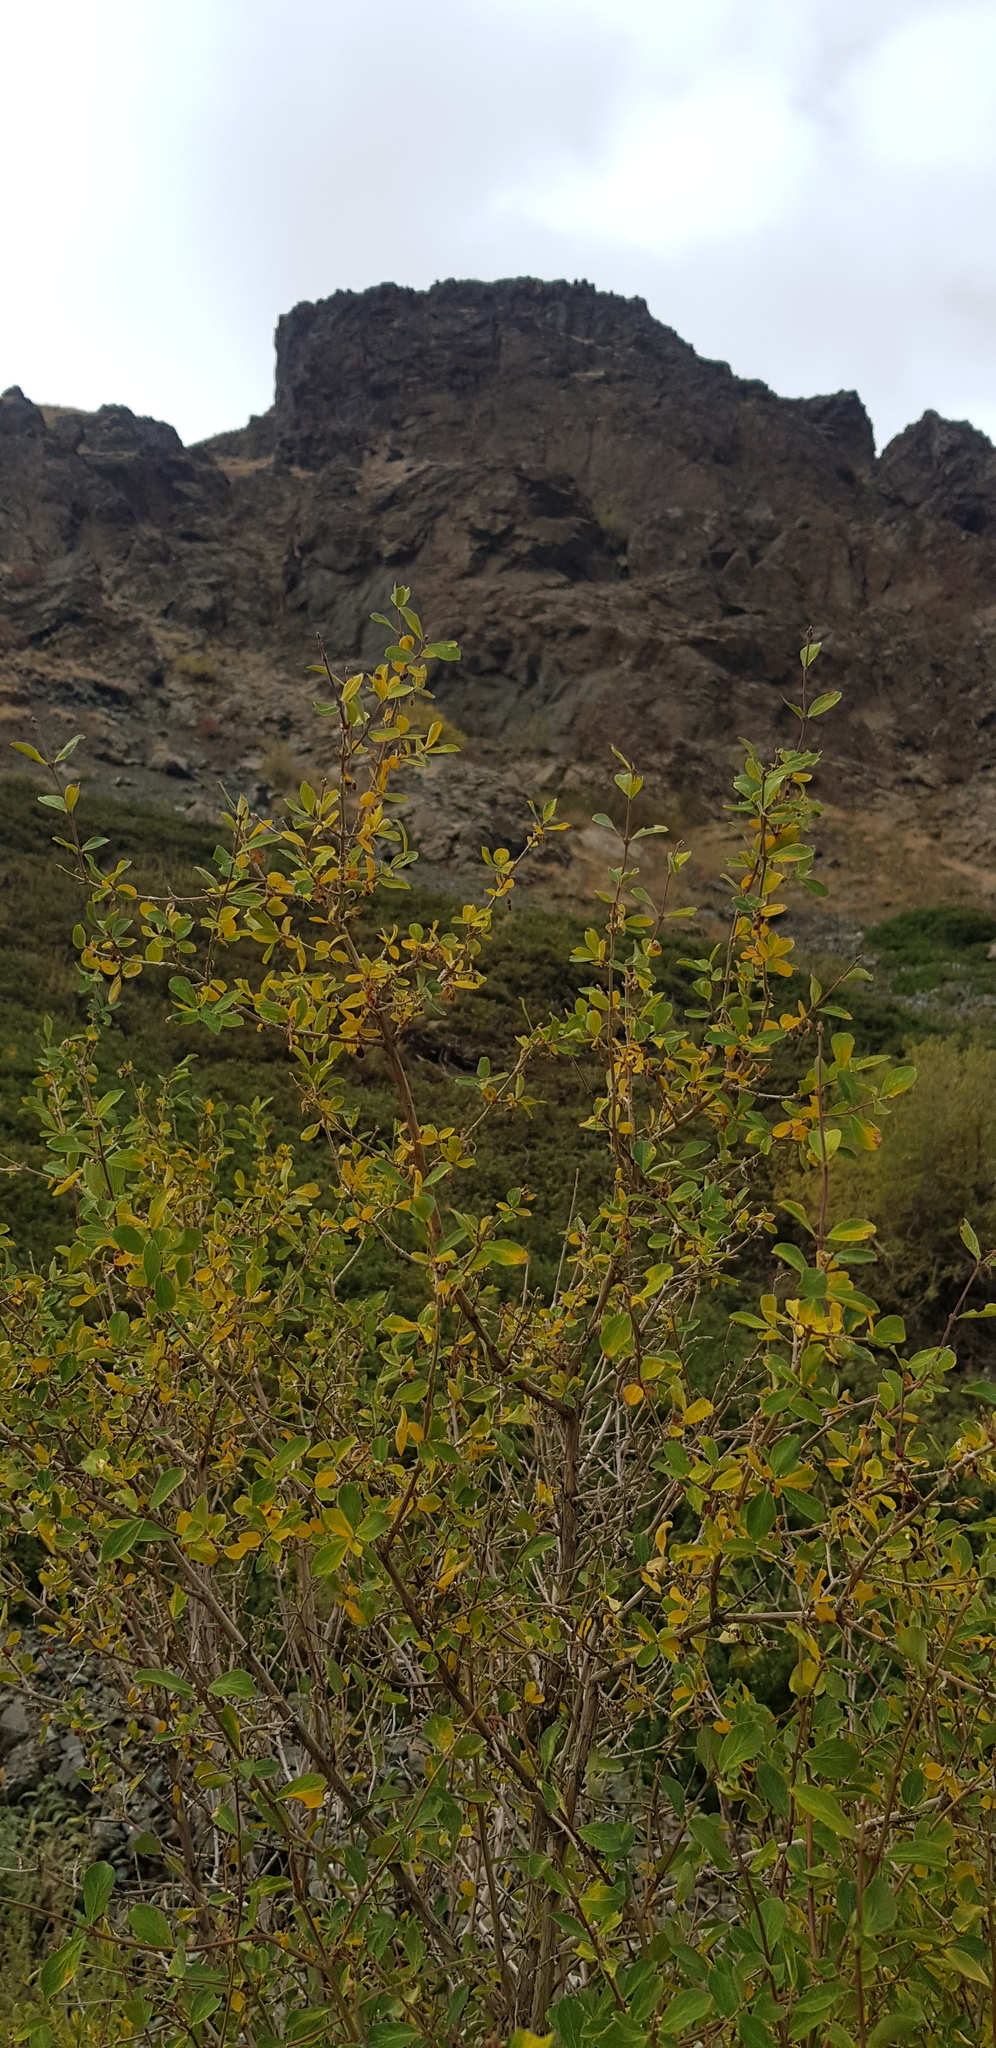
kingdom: Plantae
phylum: Tracheophyta
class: Magnoliopsida
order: Dipsacales
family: Caprifoliaceae
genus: Lonicera
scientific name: Lonicera microphylla
